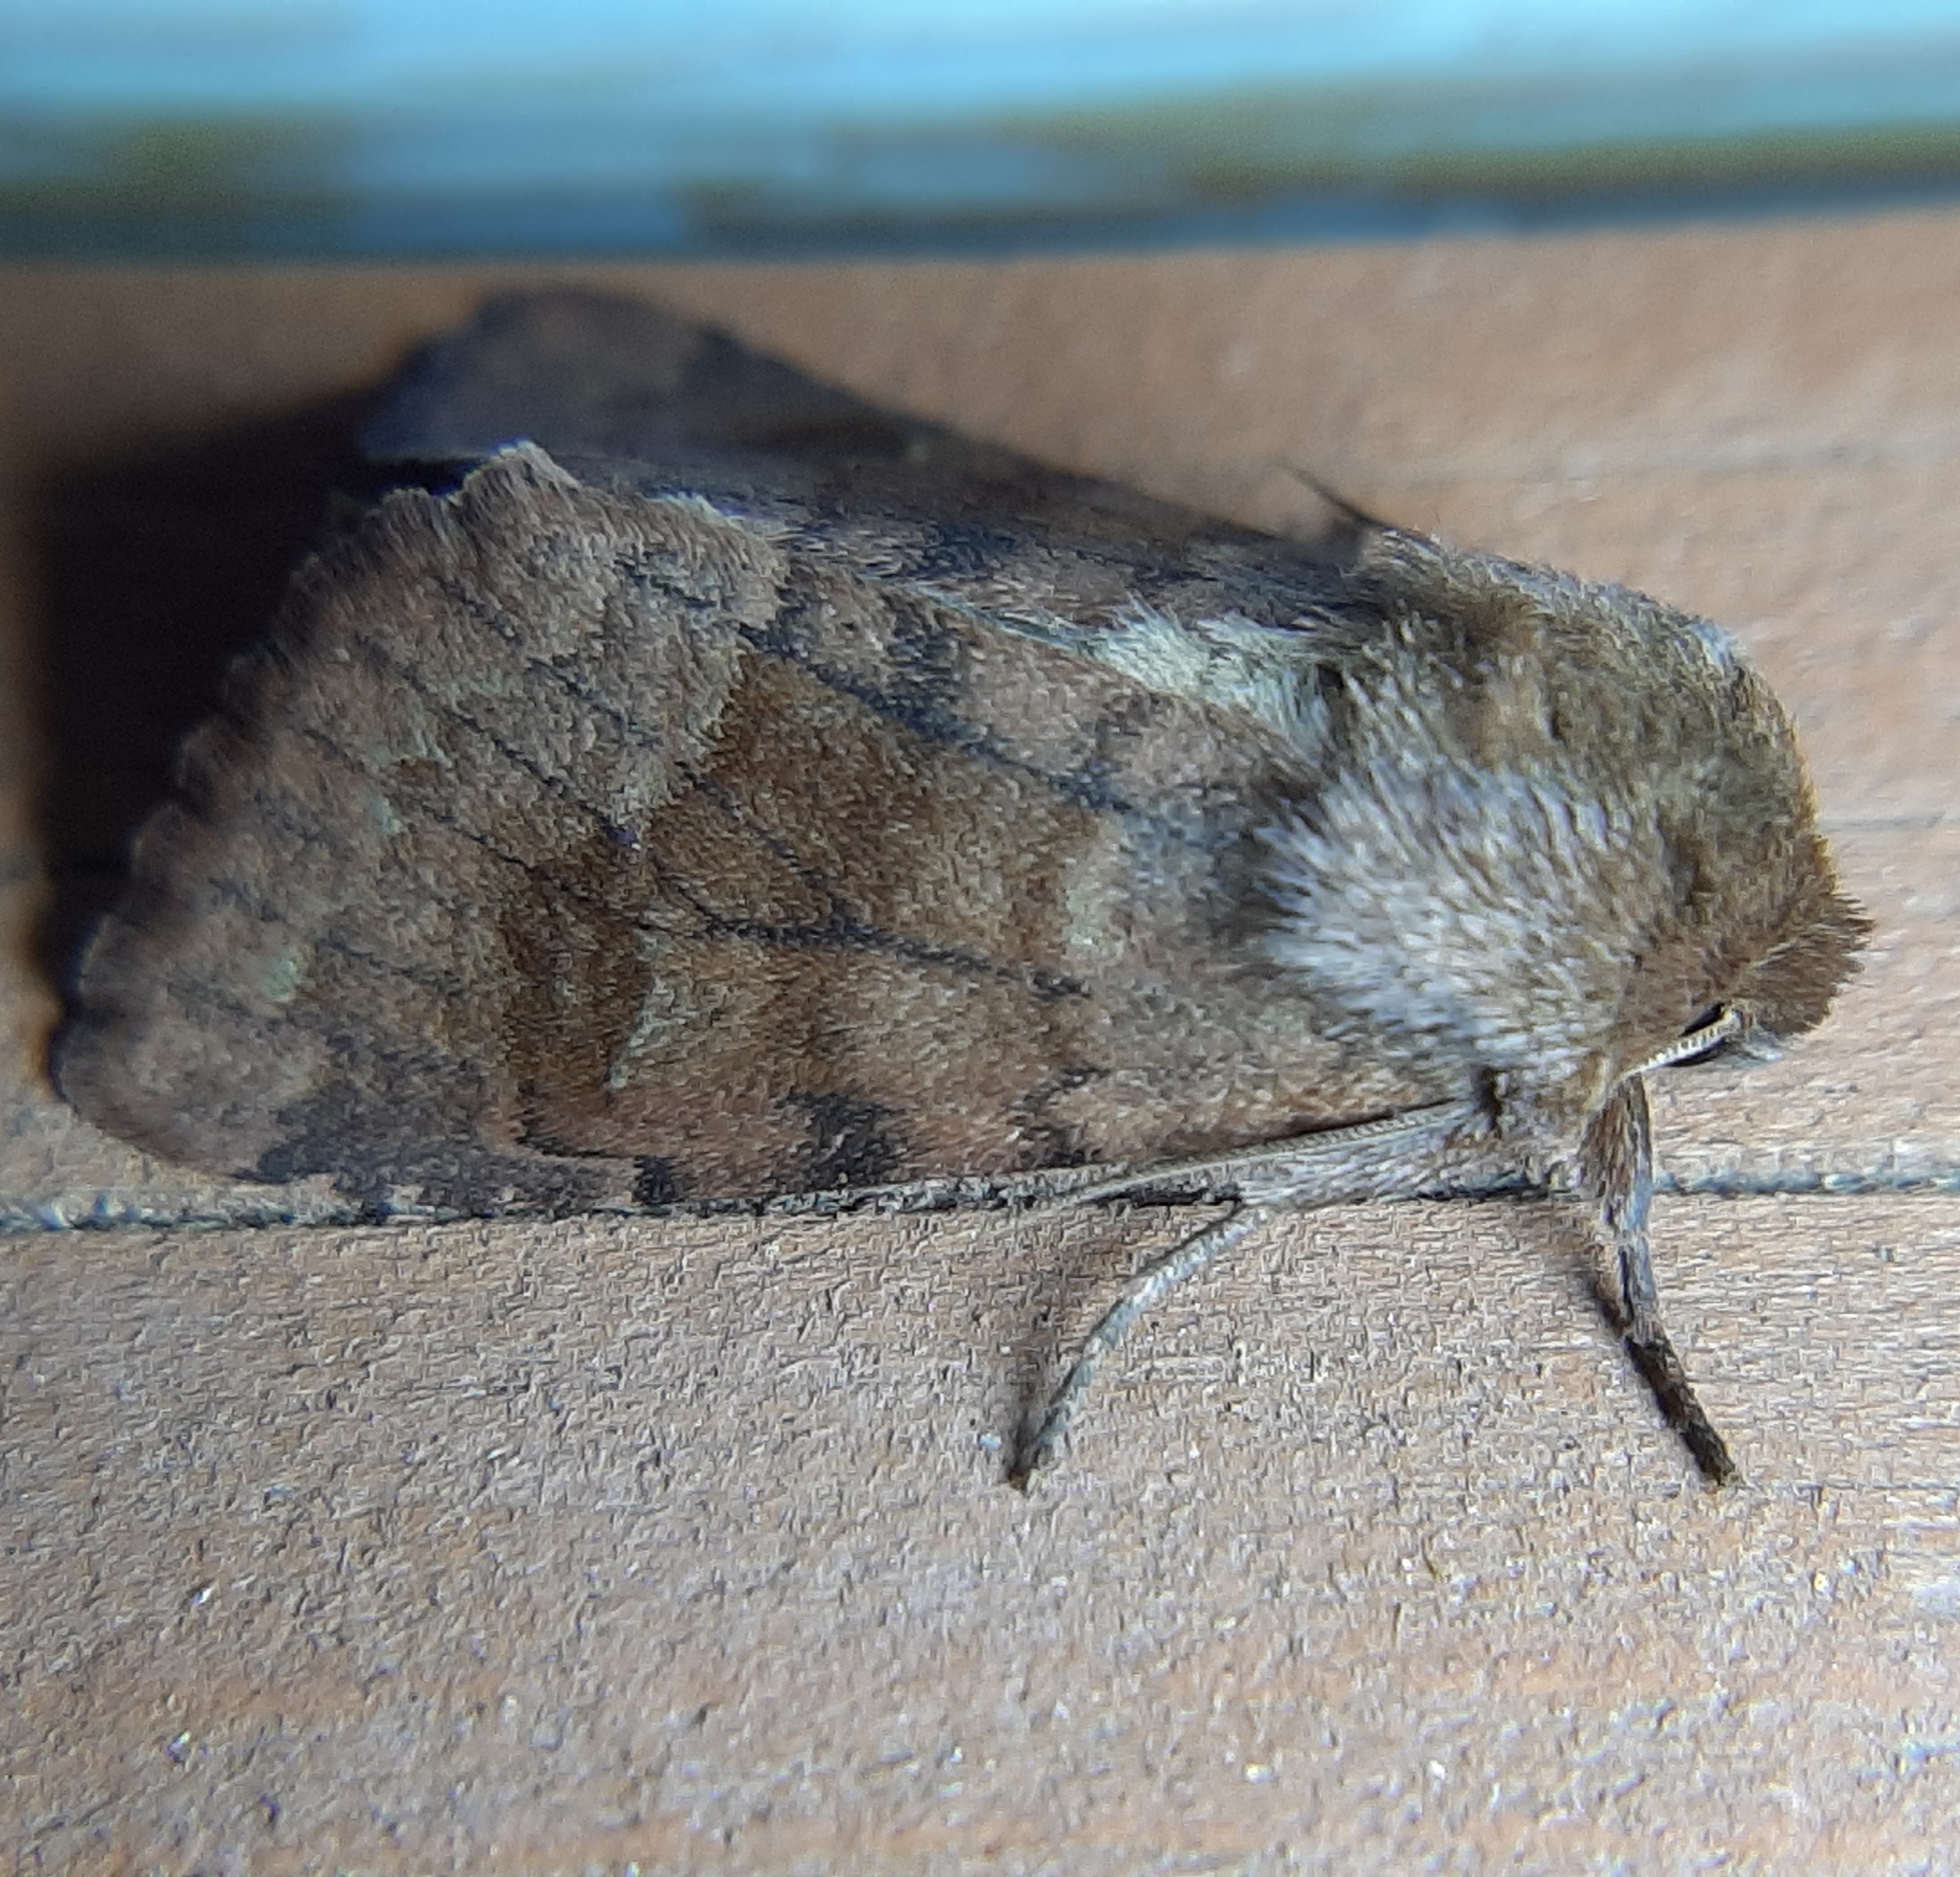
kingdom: Animalia
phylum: Arthropoda
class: Insecta
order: Lepidoptera
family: Noctuidae
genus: Nephelodes
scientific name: Nephelodes minians
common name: Bronzed cutworm
